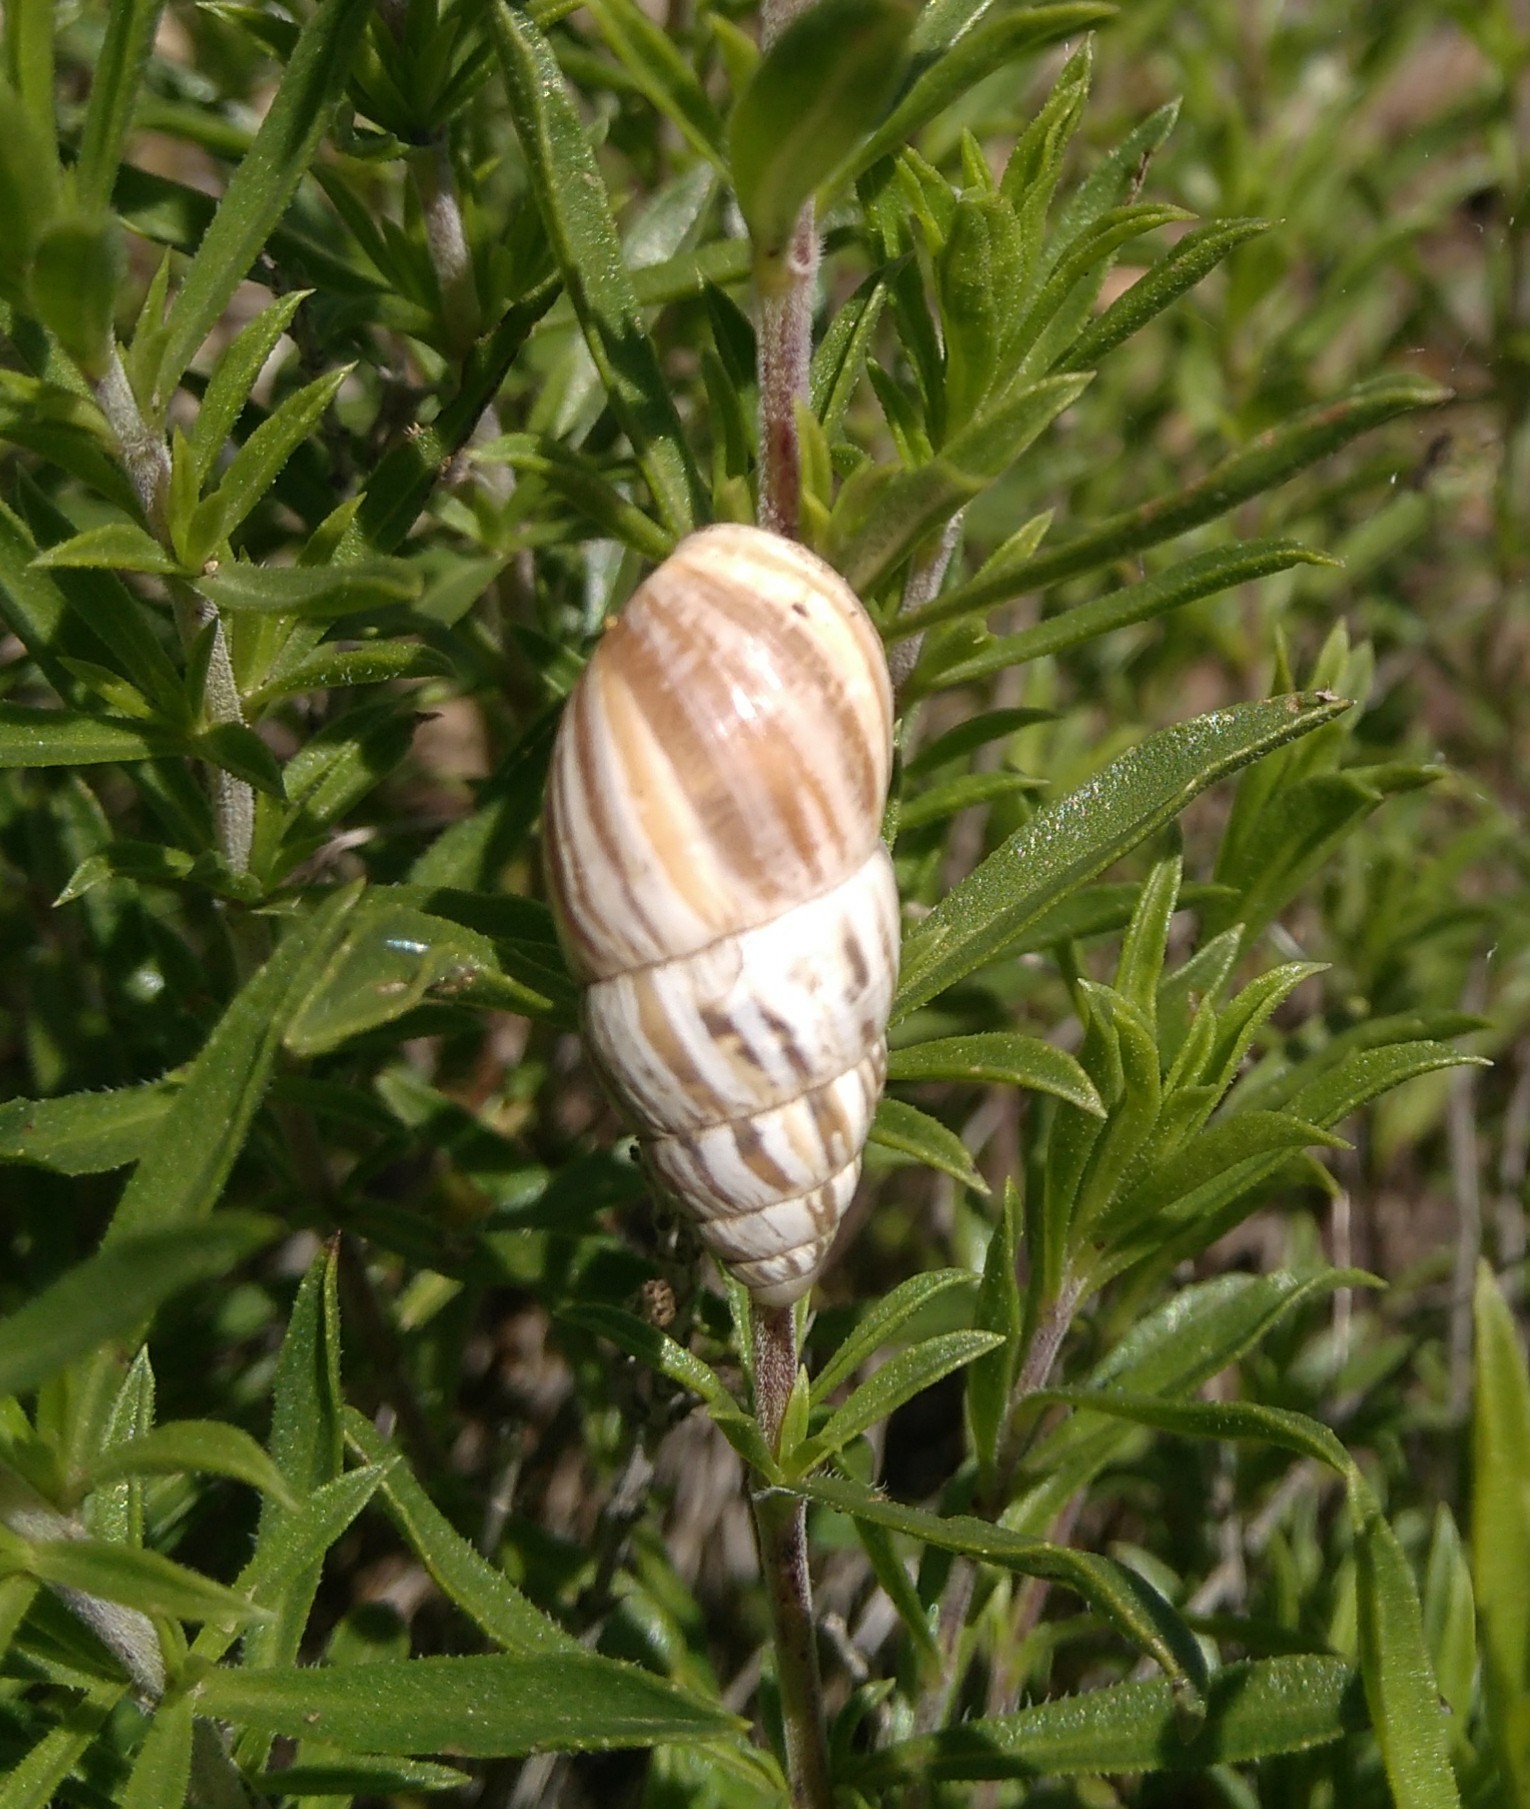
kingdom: Animalia
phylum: Mollusca
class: Gastropoda
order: Stylommatophora
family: Enidae
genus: Zebrina
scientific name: Zebrina detrita
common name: Large bulin
